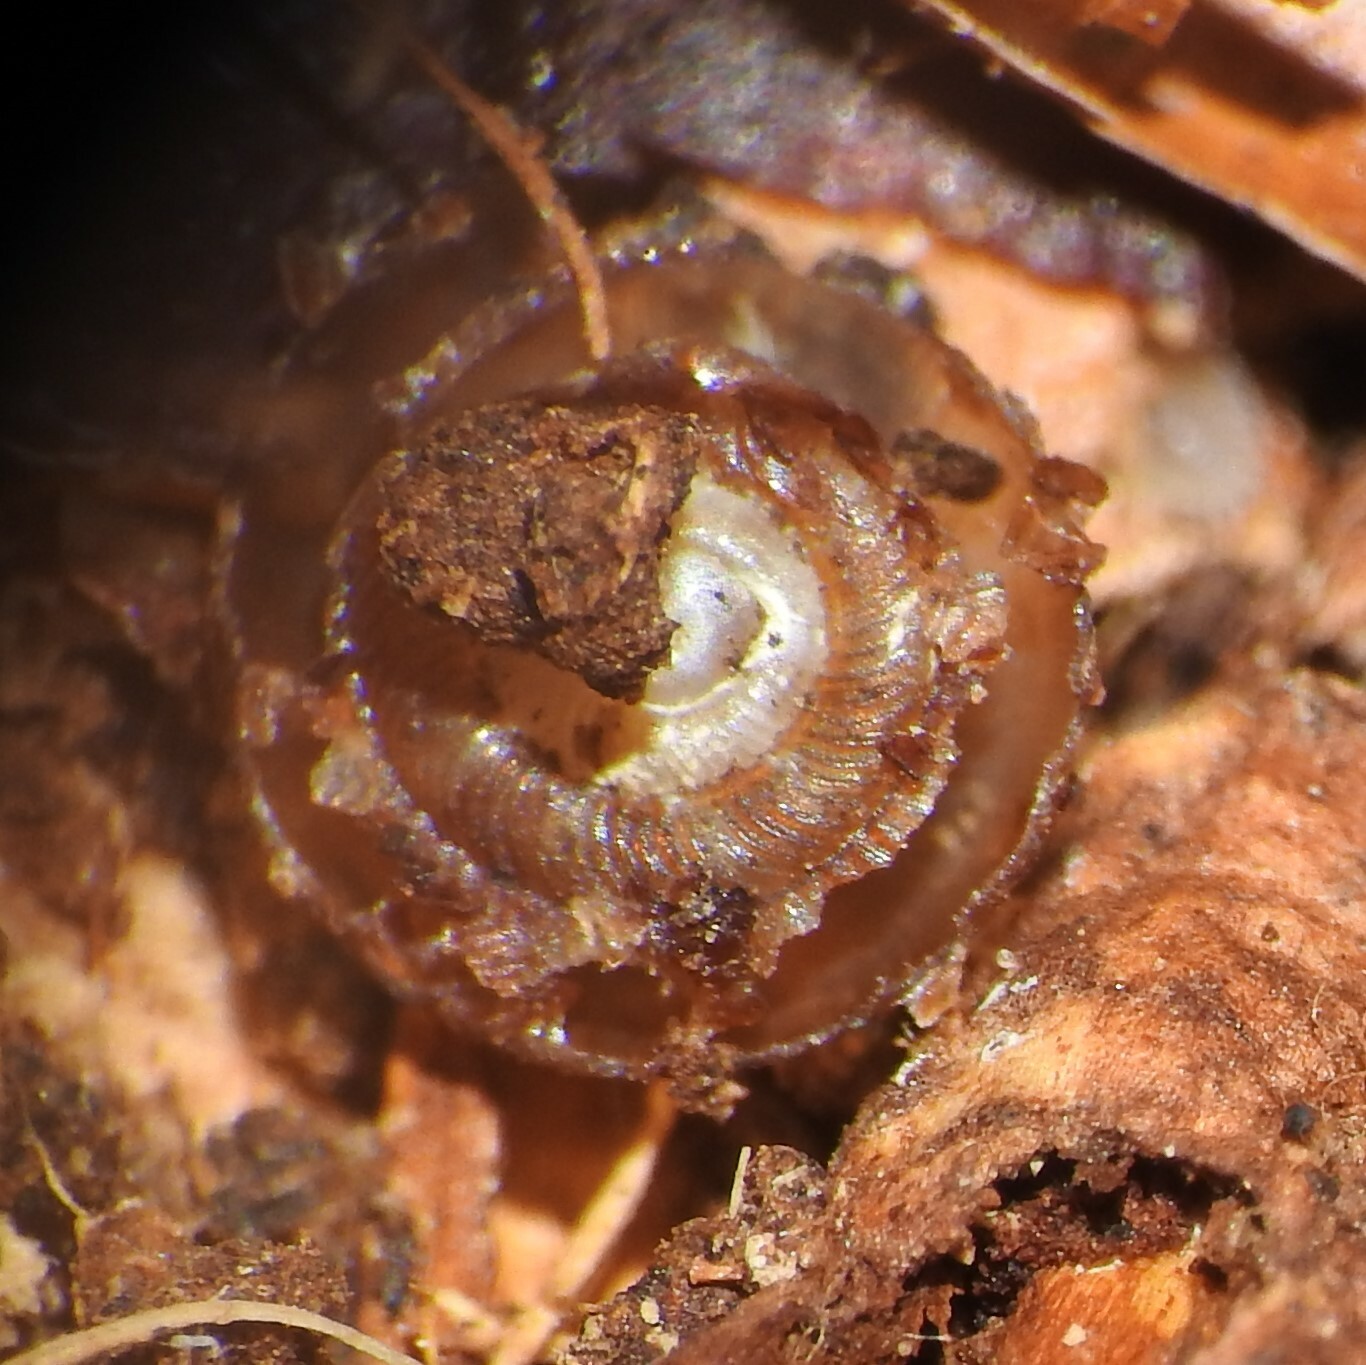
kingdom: Animalia
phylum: Mollusca
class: Gastropoda
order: Stylommatophora
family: Discidae
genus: Discus
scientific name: Discus rotundatus
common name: Rounded snail
